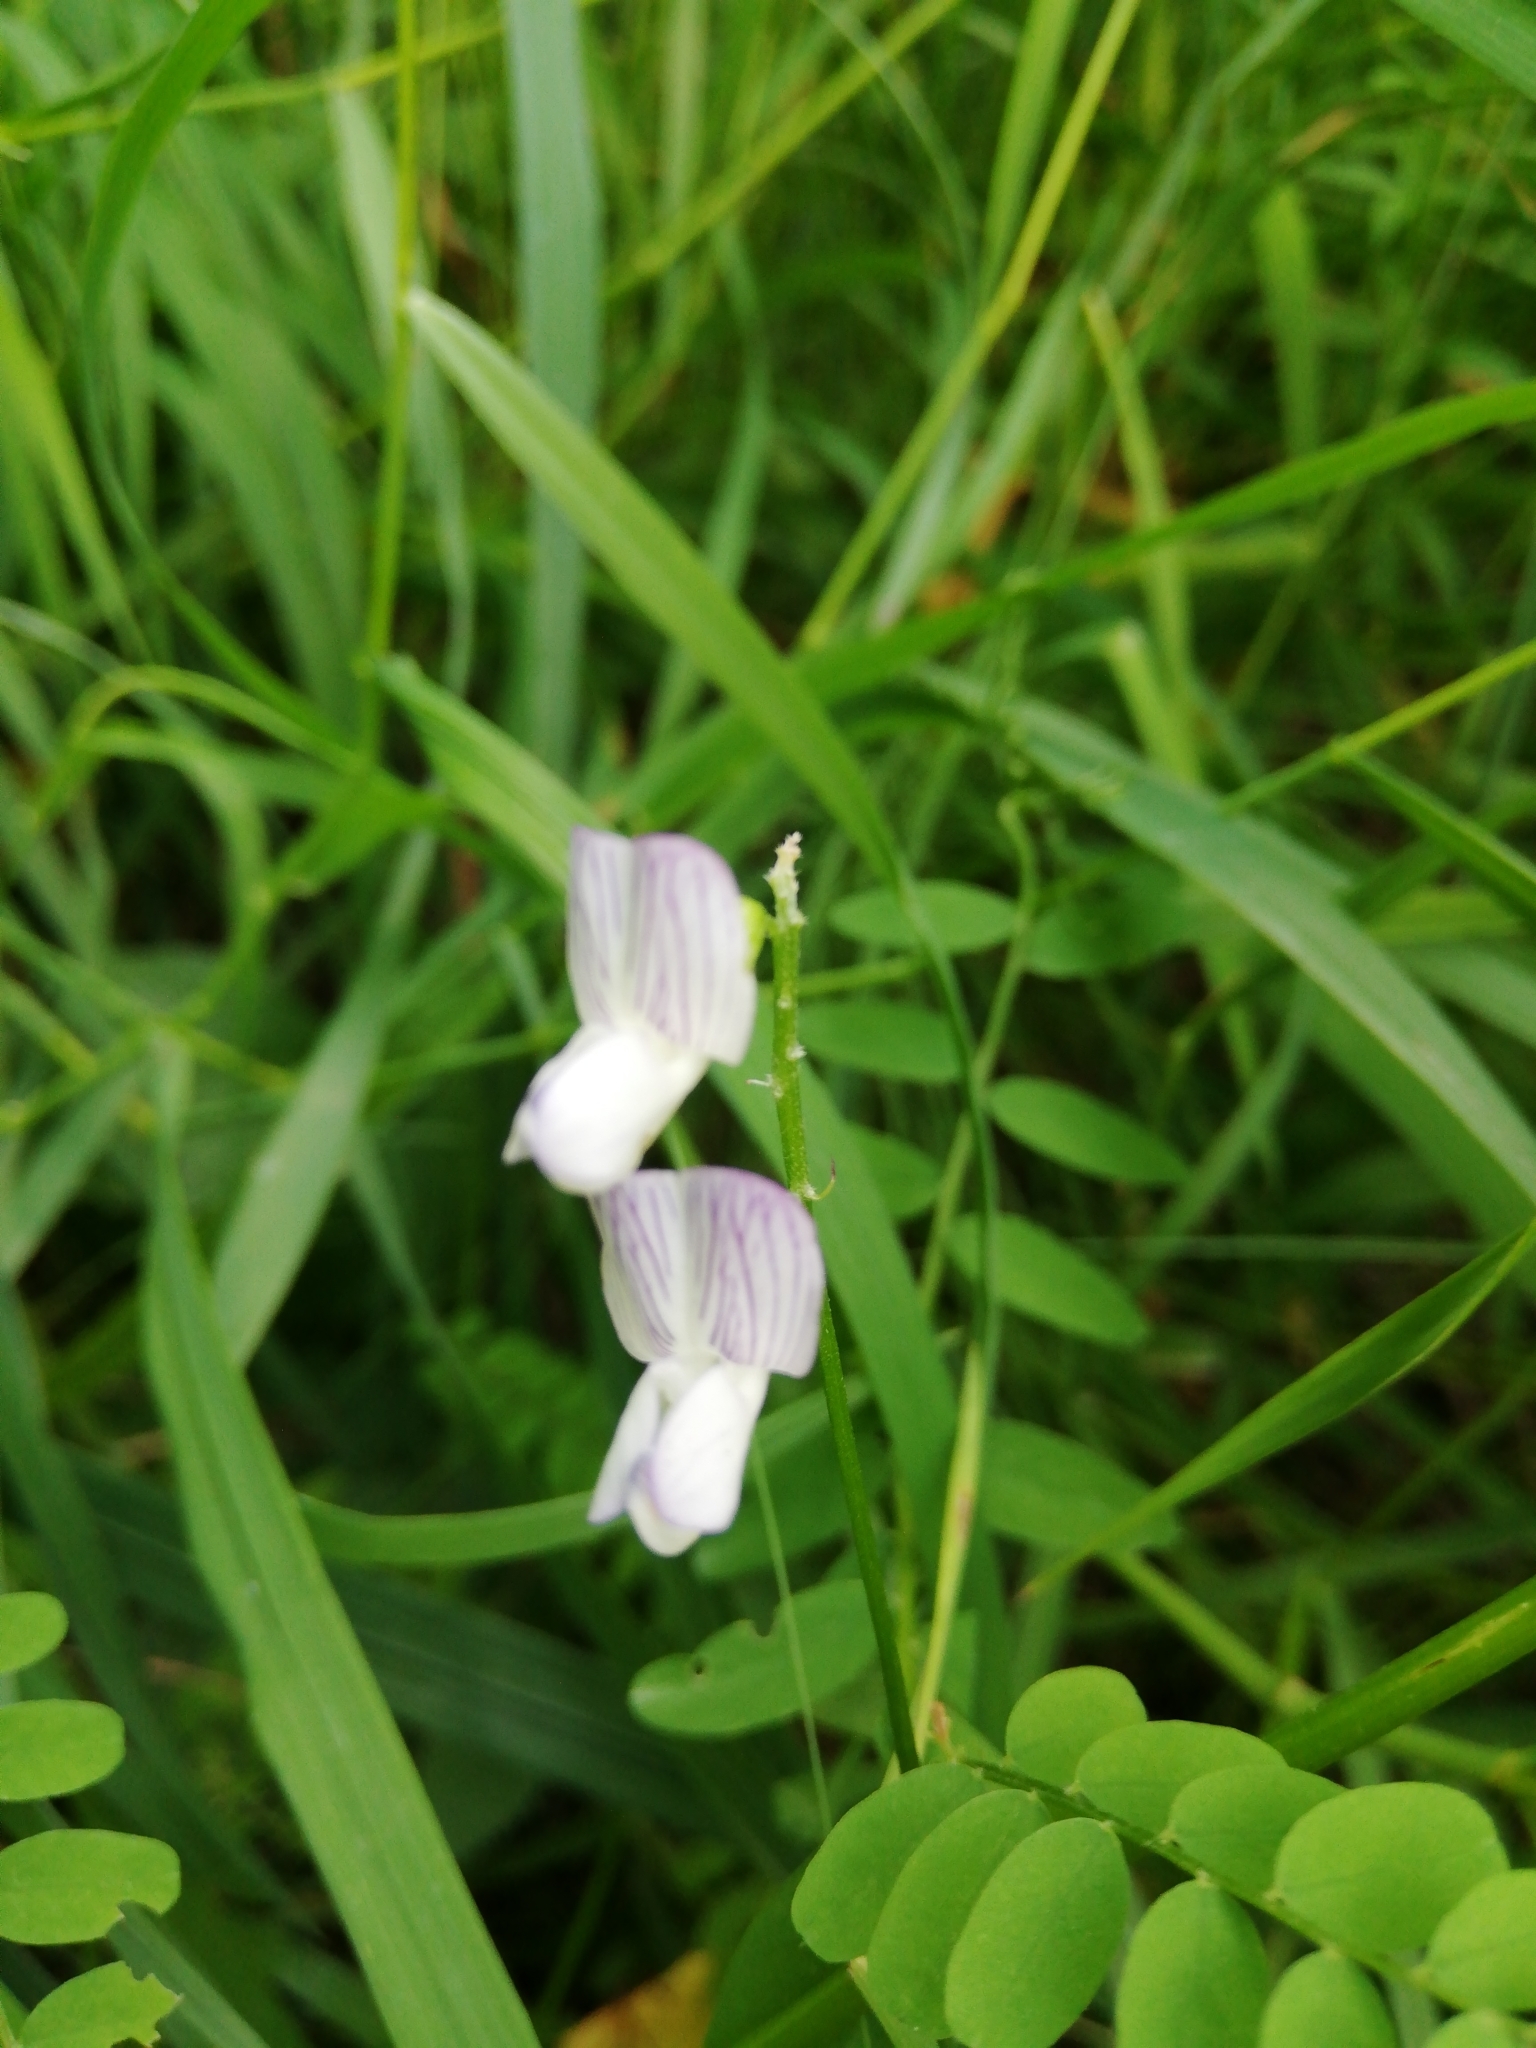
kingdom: Plantae
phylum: Tracheophyta
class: Magnoliopsida
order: Fabales
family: Fabaceae
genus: Vicia
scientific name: Vicia sylvatica
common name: Wood vetch
